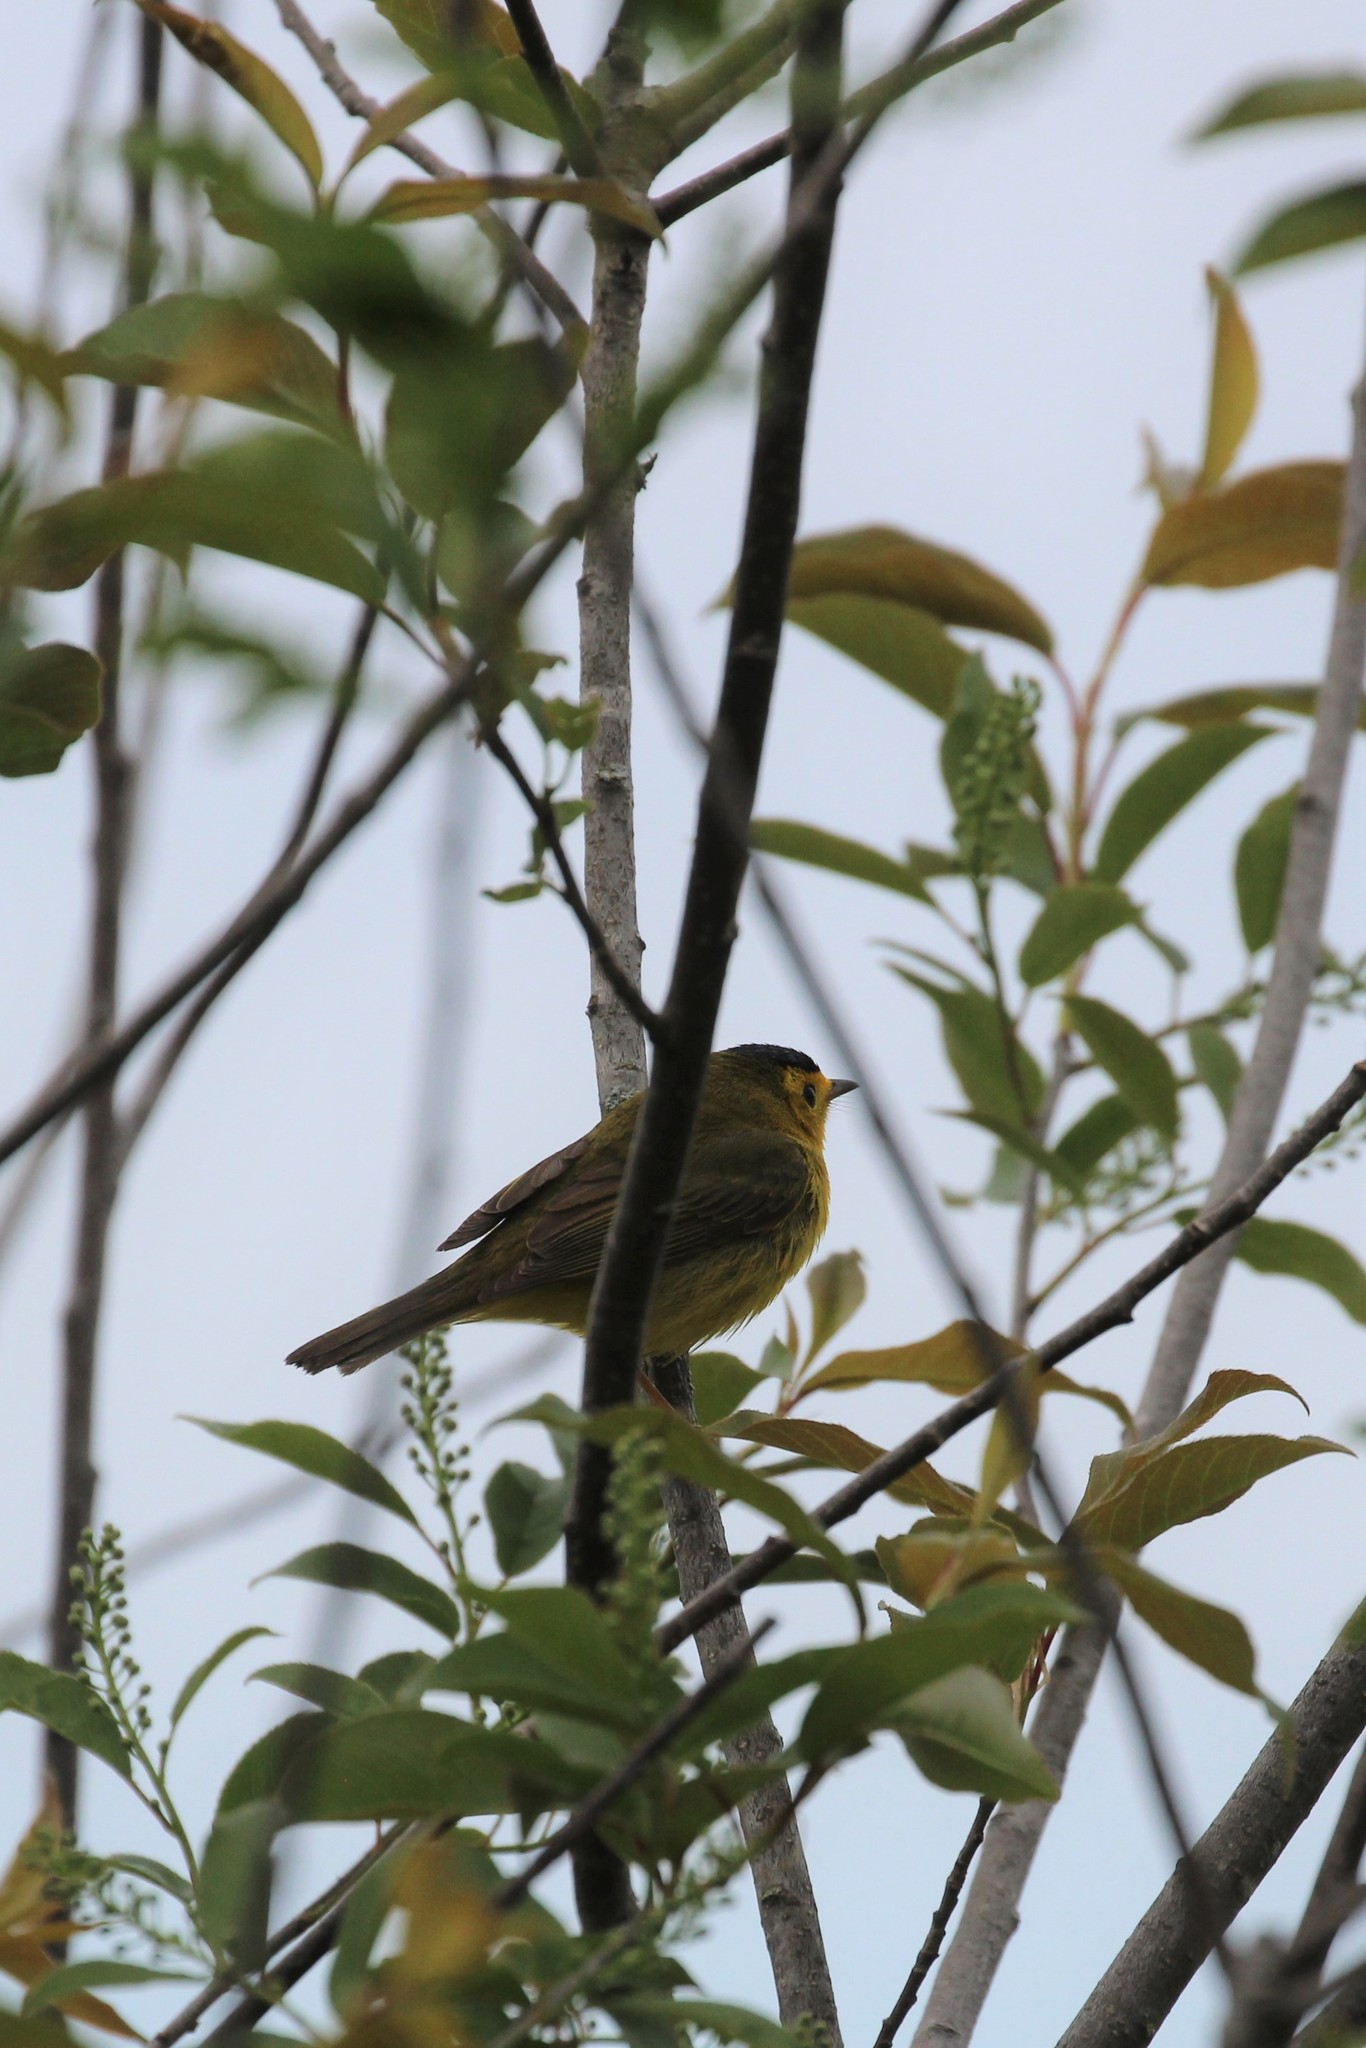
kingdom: Animalia
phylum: Chordata
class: Aves
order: Passeriformes
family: Parulidae
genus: Cardellina
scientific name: Cardellina pusilla
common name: Wilson's warbler
